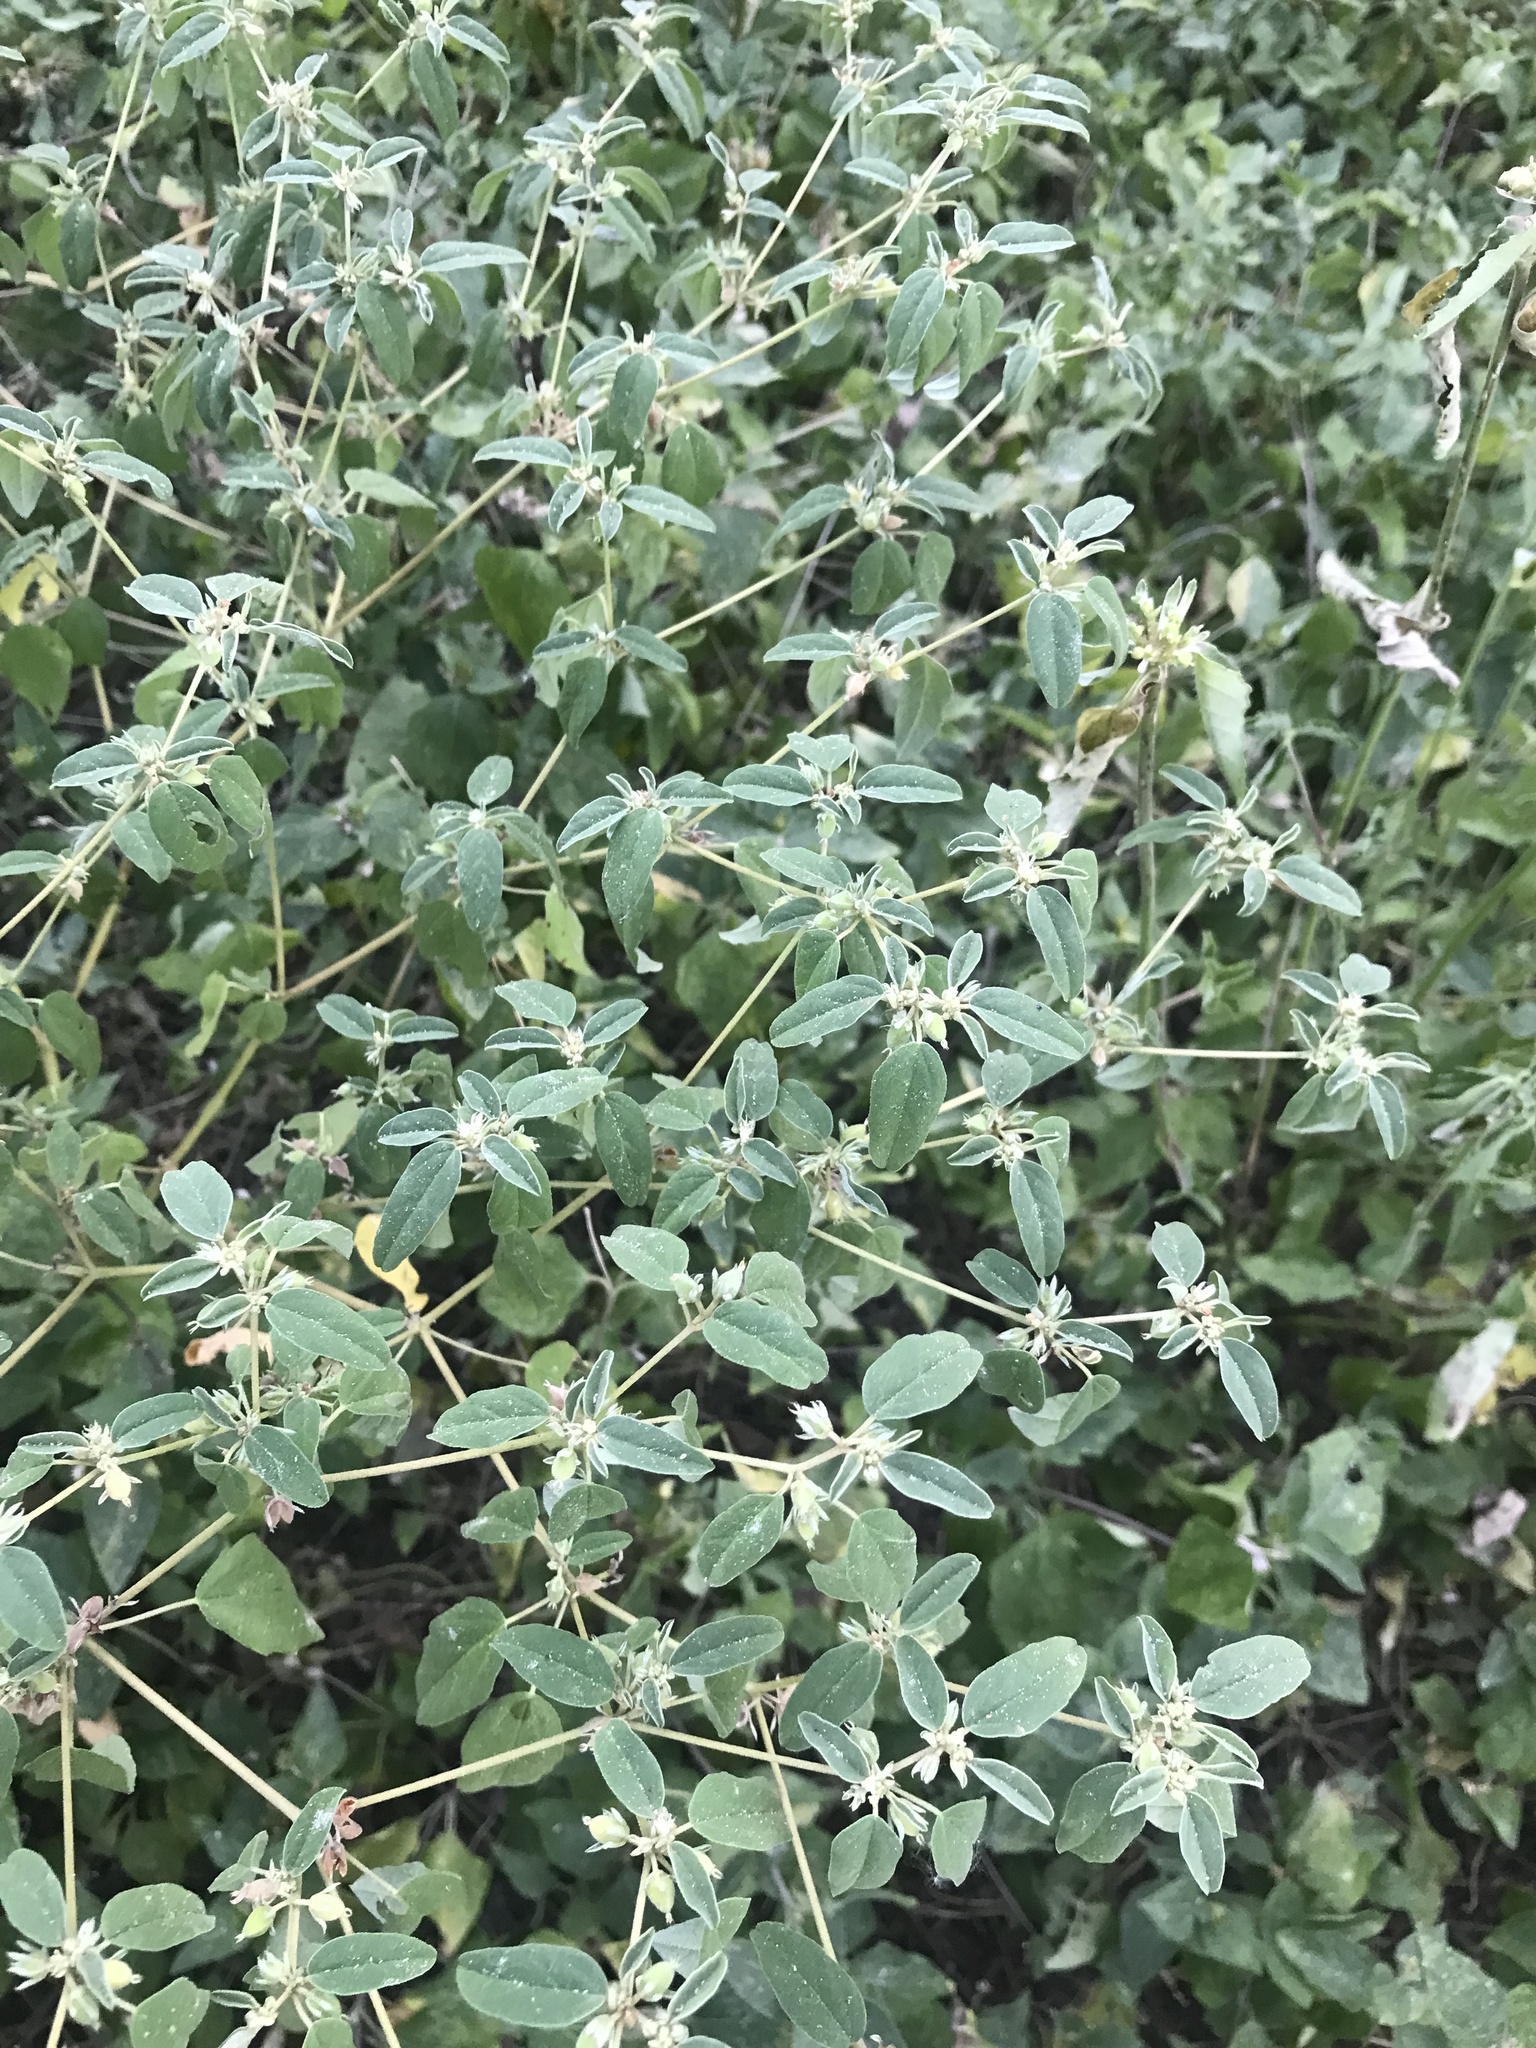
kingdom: Plantae
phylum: Tracheophyta
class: Magnoliopsida
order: Malpighiales
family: Euphorbiaceae
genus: Croton
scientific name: Croton monanthogynus
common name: One-seed croton
